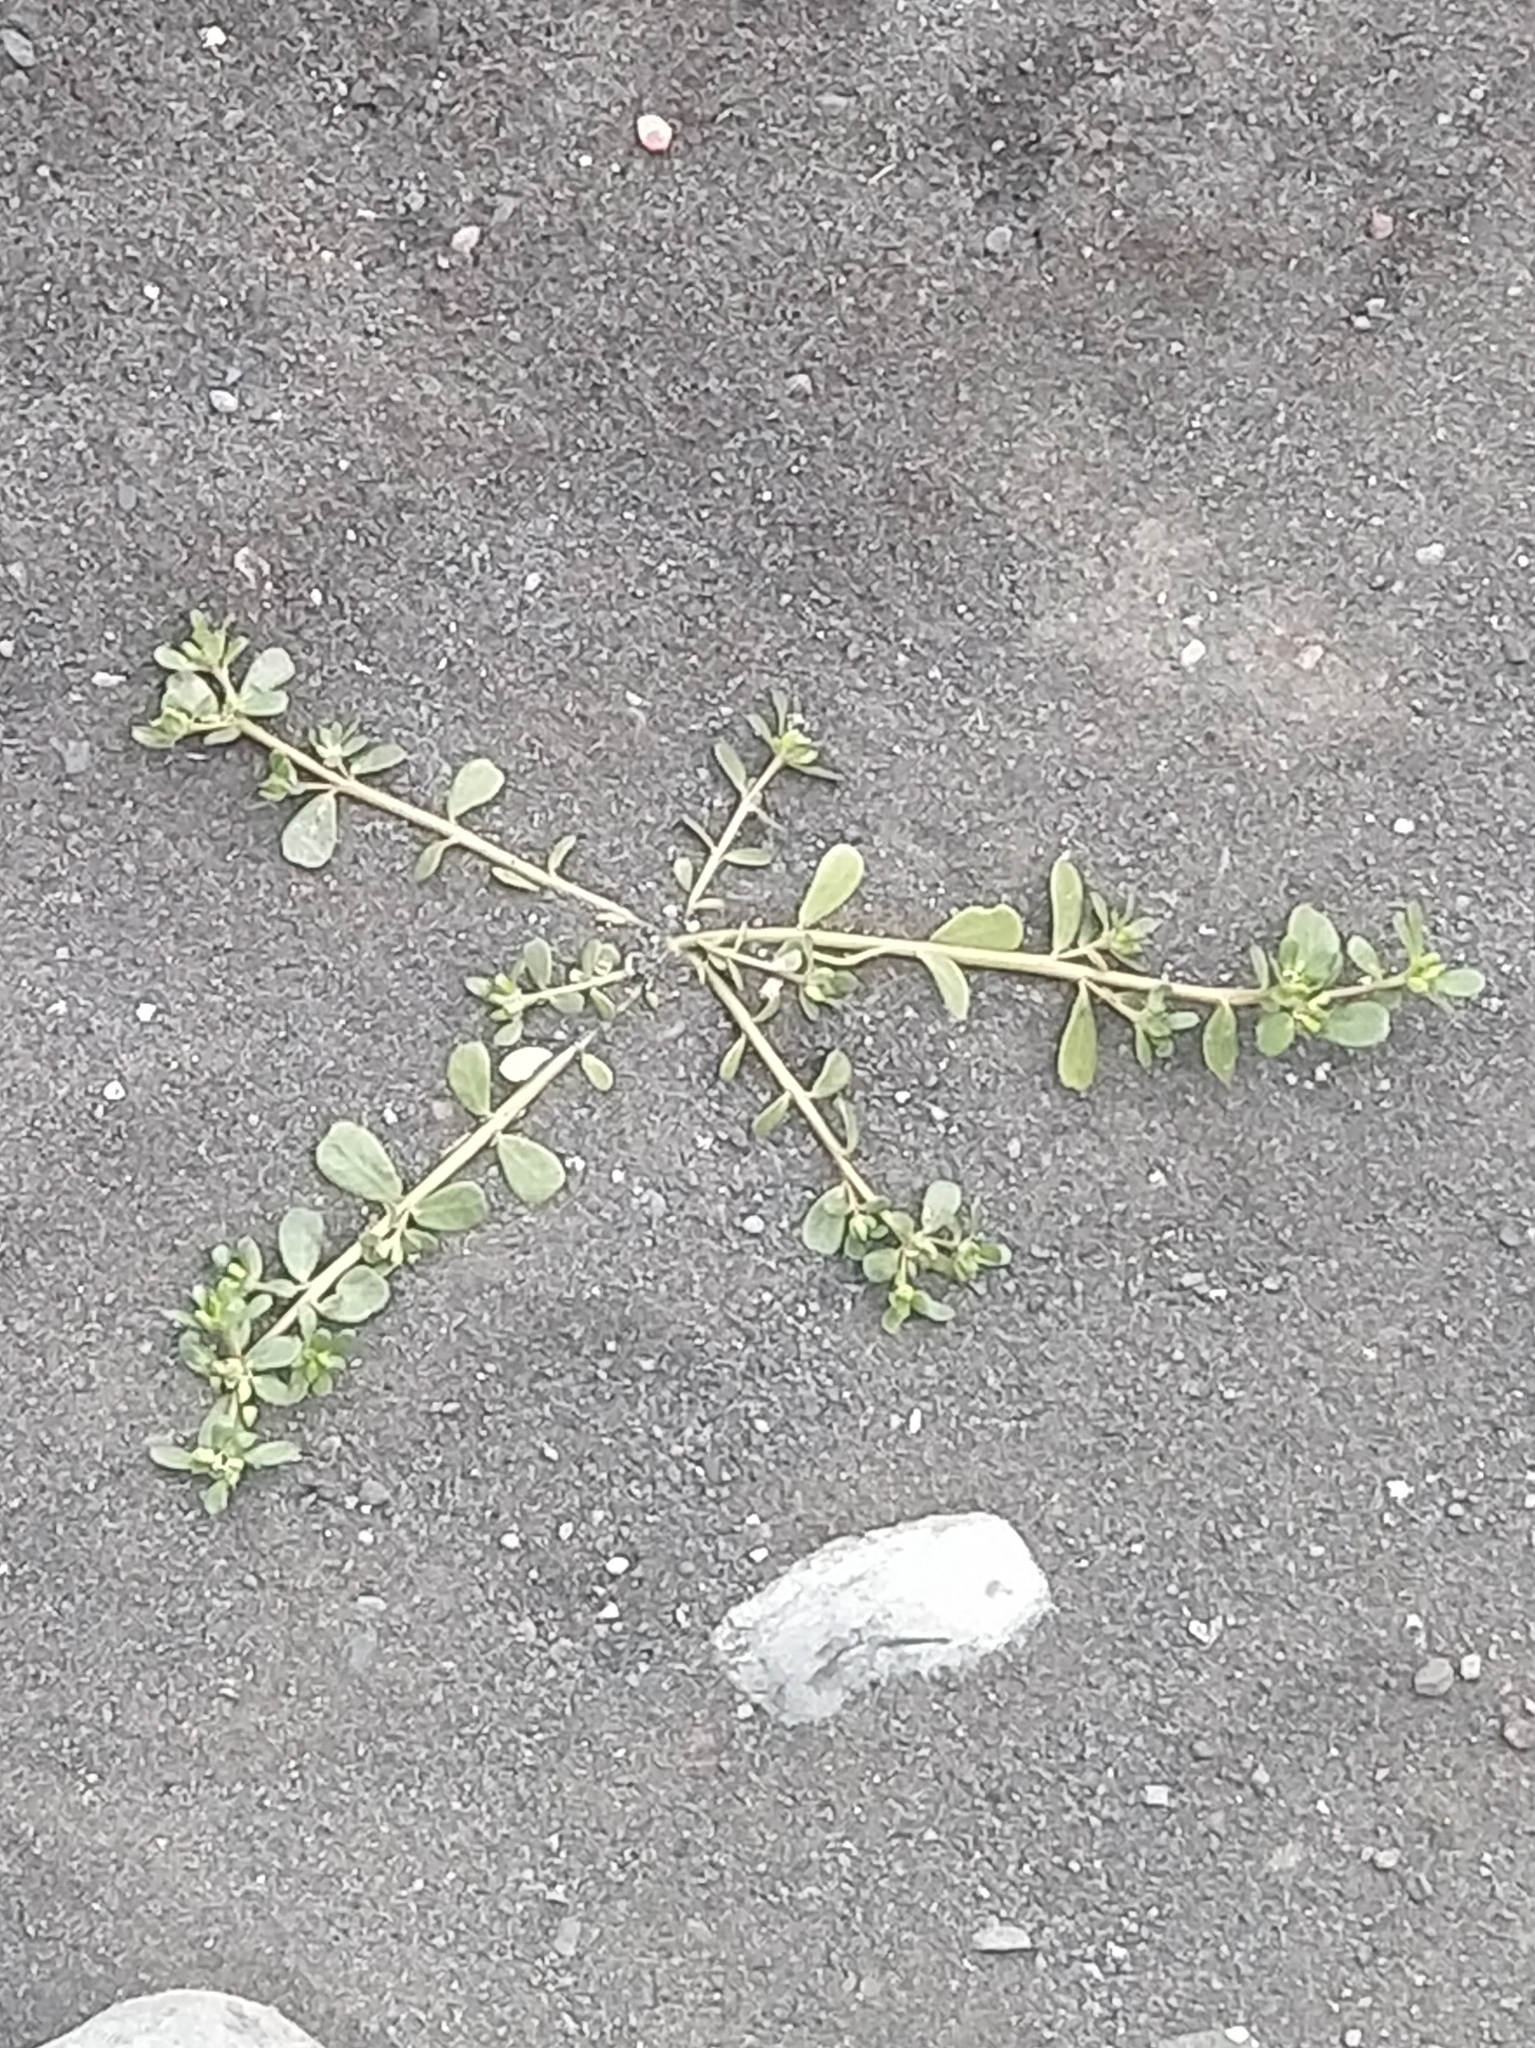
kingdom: Plantae
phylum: Tracheophyta
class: Magnoliopsida
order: Caryophyllales
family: Portulacaceae
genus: Portulaca
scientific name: Portulaca oleracea
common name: Common purslane
